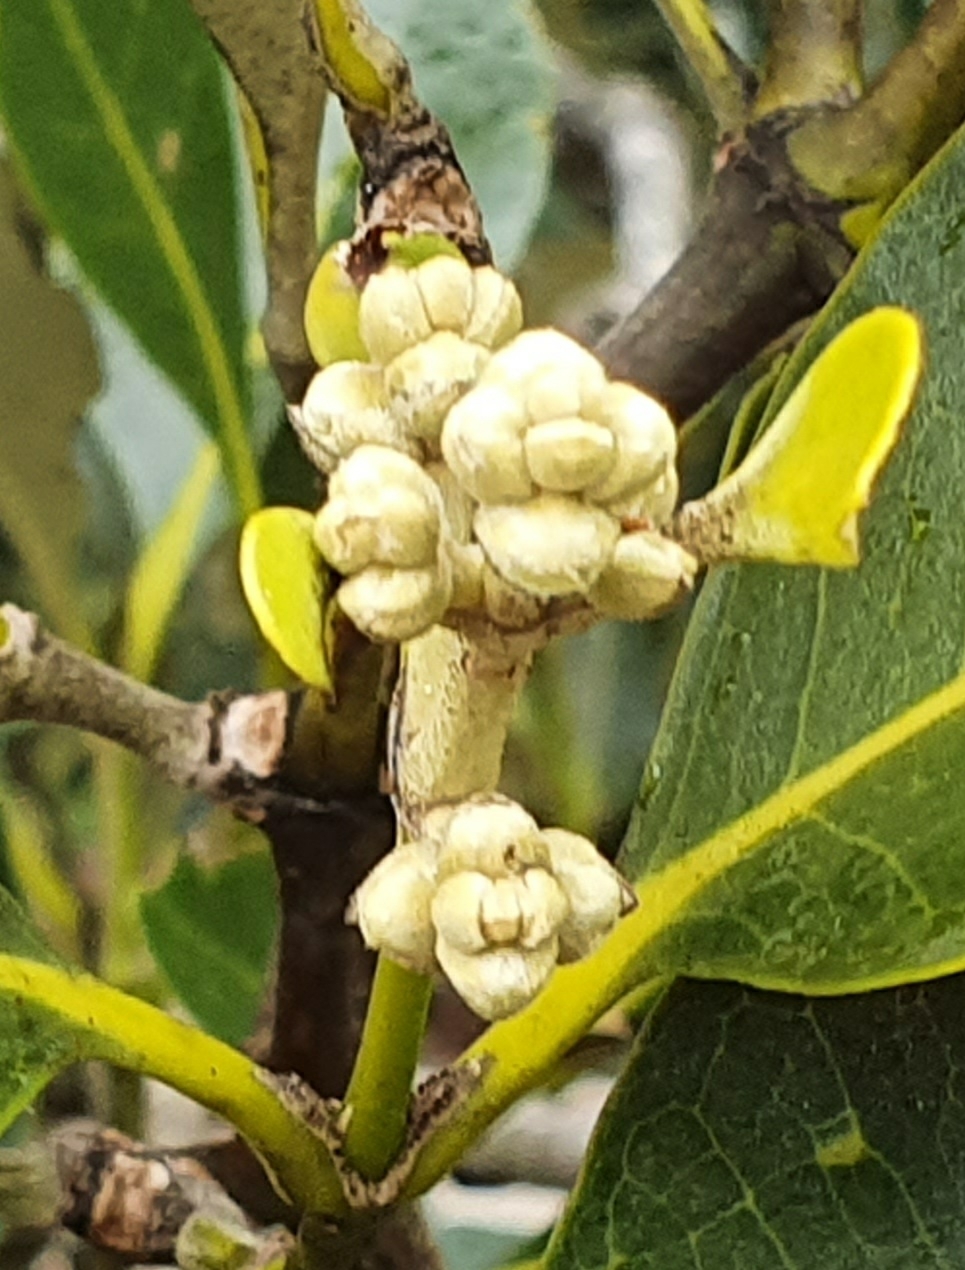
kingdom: Plantae
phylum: Tracheophyta
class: Magnoliopsida
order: Lamiales
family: Acanthaceae
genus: Avicennia
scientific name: Avicennia marina
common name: Gray mangrove
